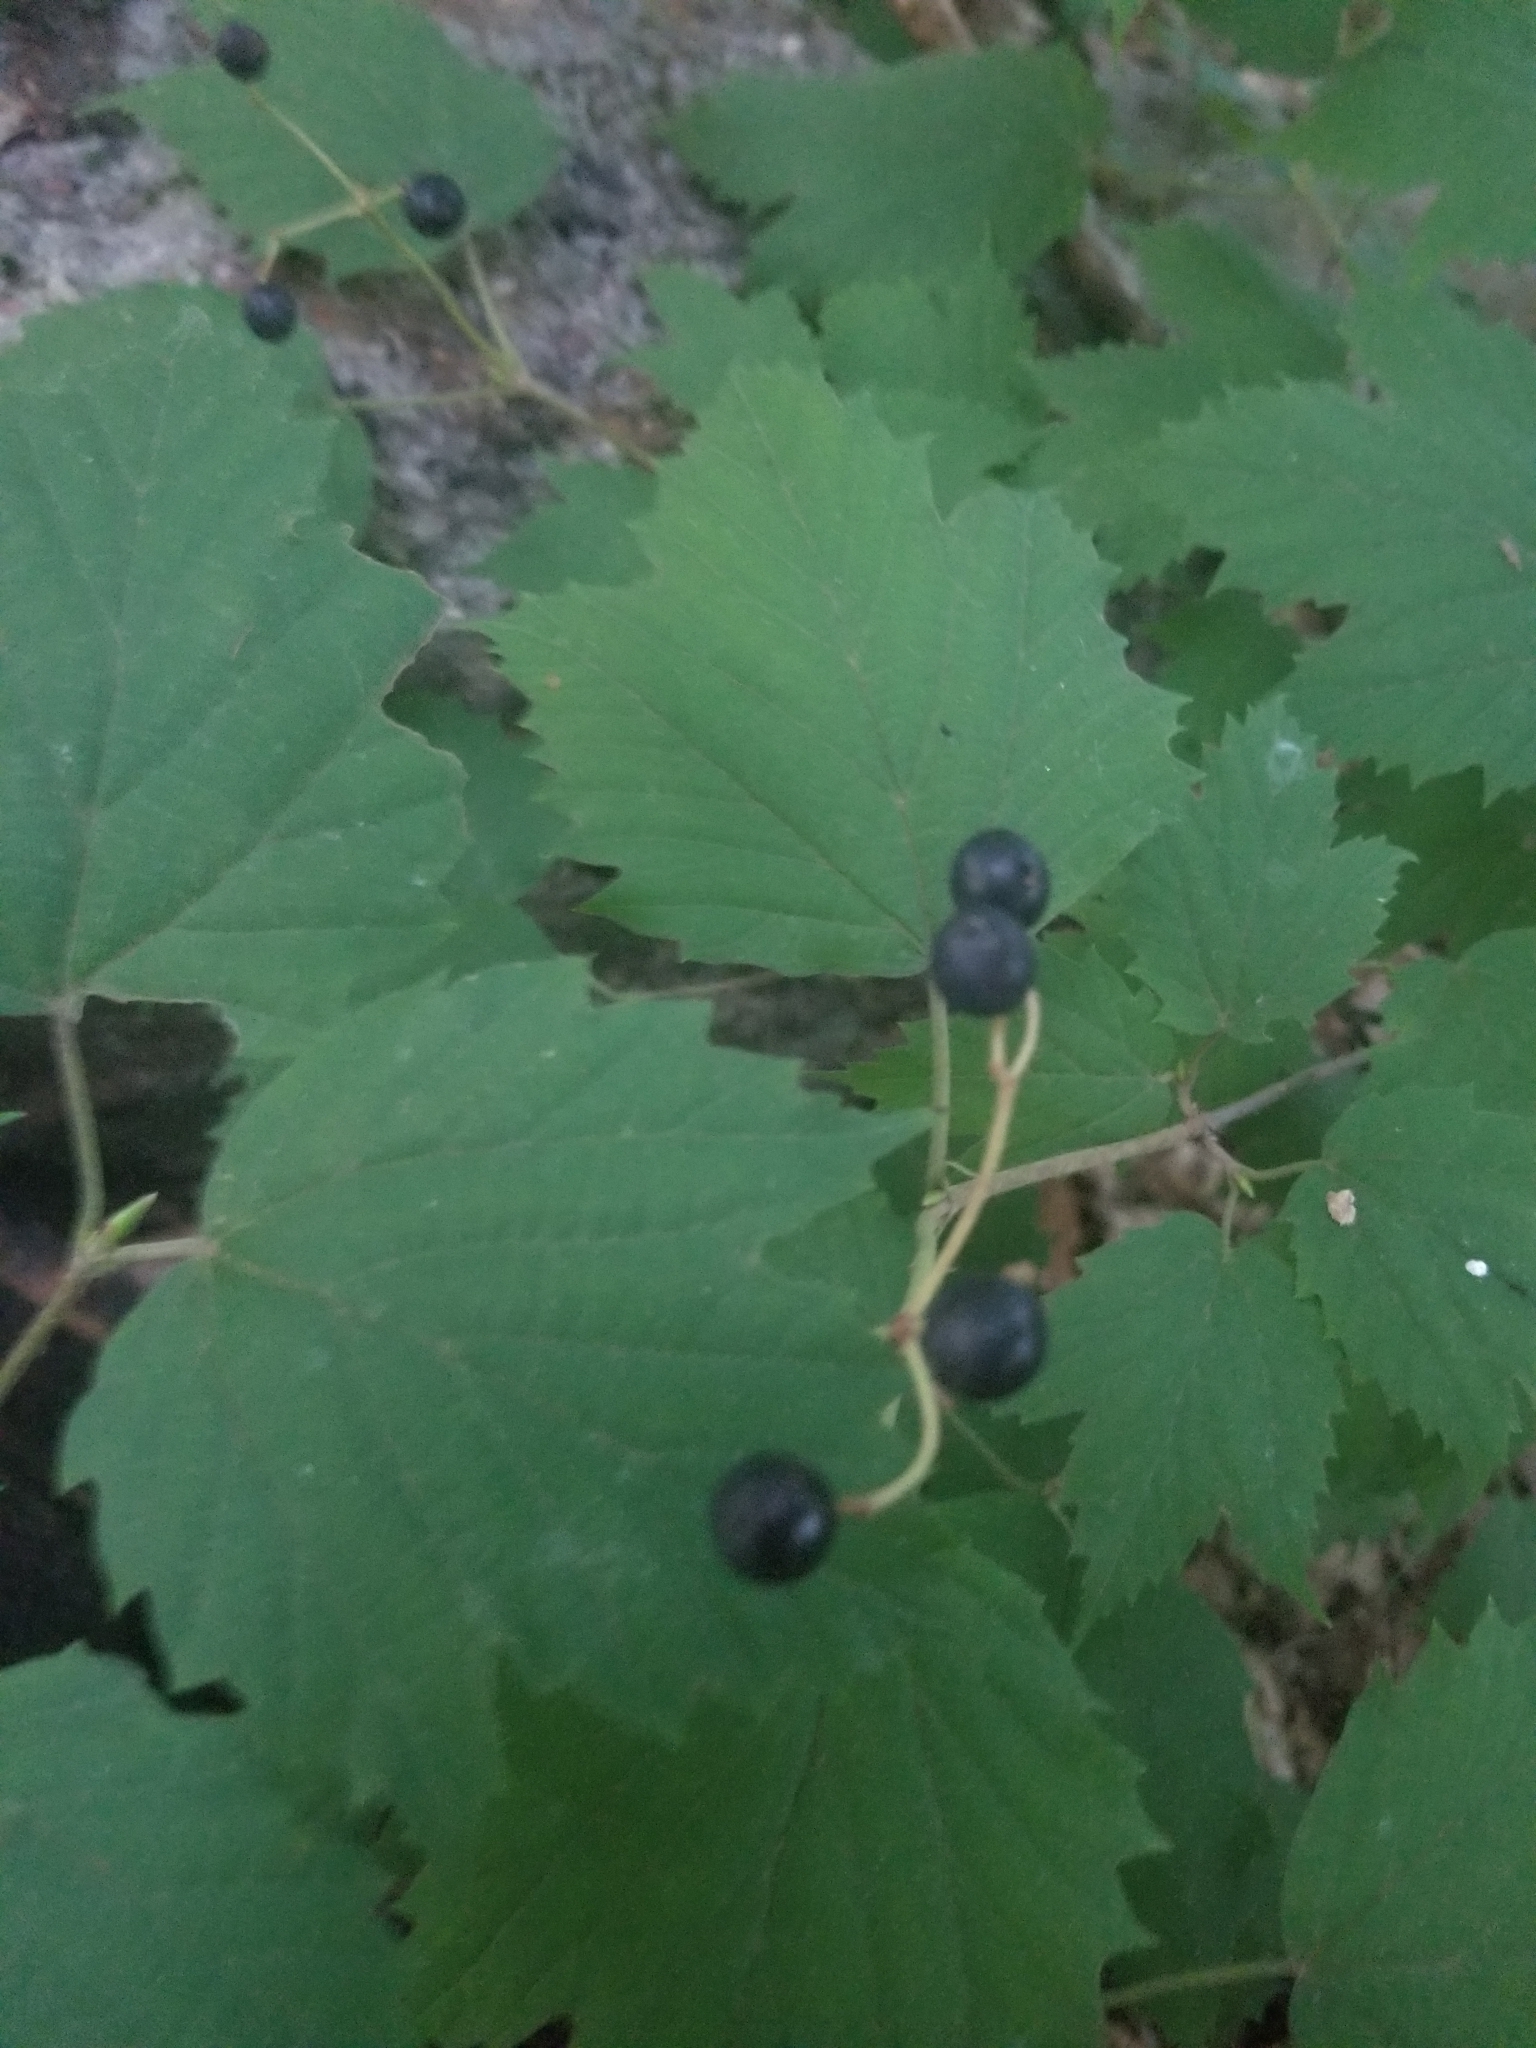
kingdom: Plantae
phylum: Tracheophyta
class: Magnoliopsida
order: Dipsacales
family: Viburnaceae
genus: Viburnum
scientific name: Viburnum acerifolium
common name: Dockmackie
